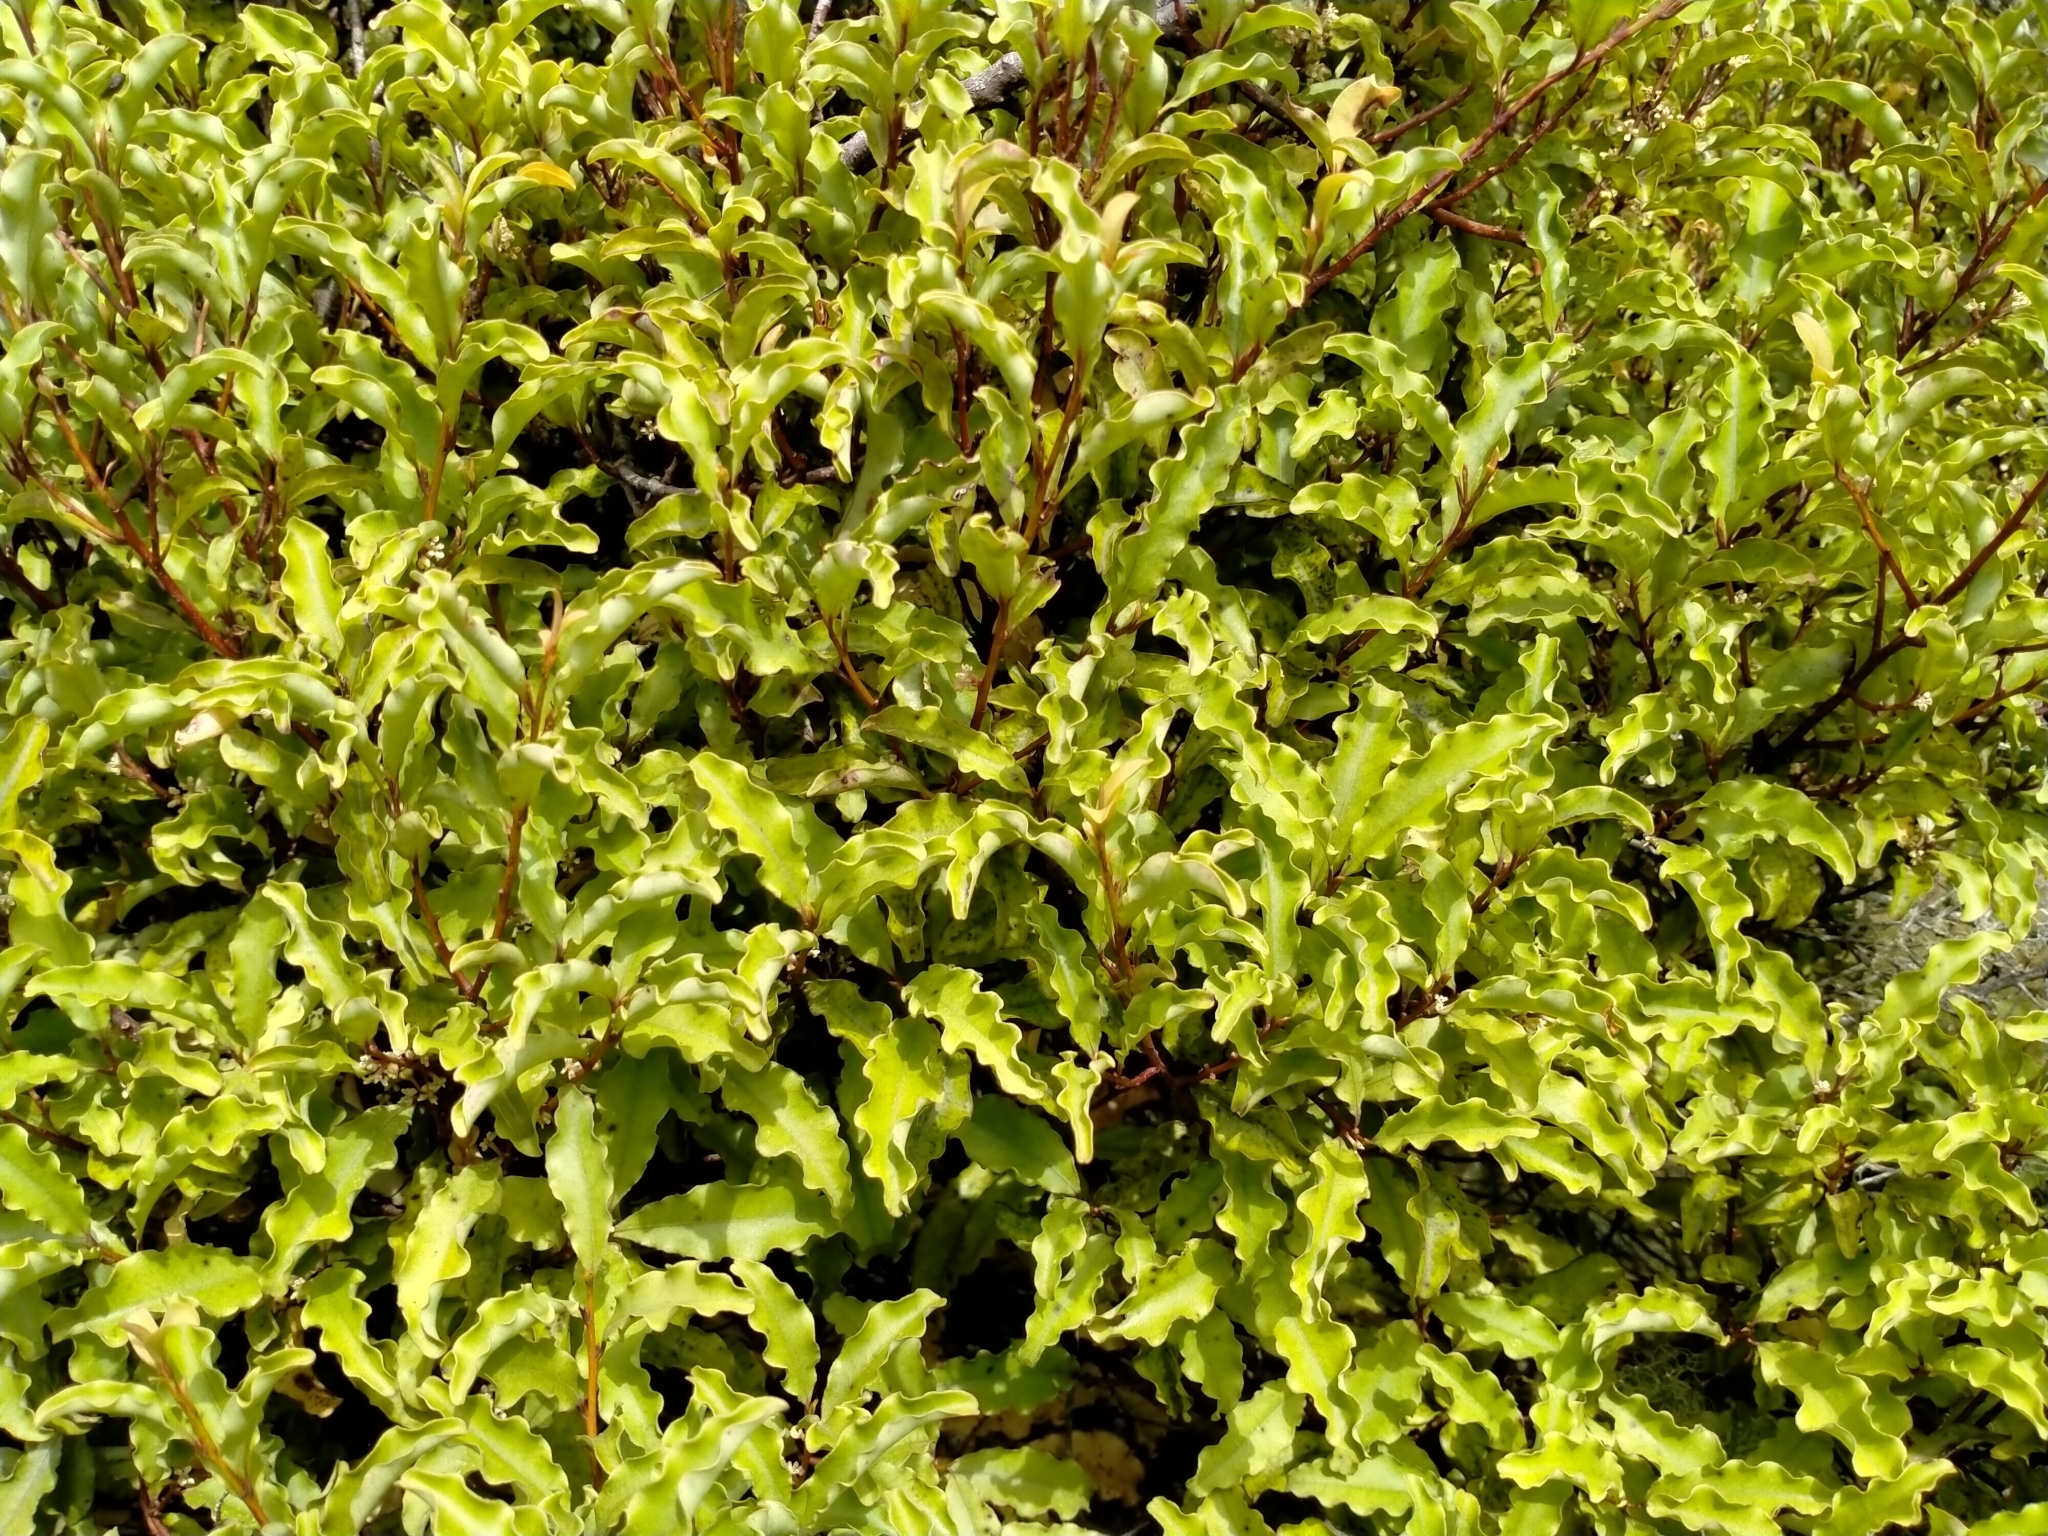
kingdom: Plantae
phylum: Tracheophyta
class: Magnoliopsida
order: Ericales
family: Primulaceae
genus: Myrsine
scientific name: Myrsine australis
